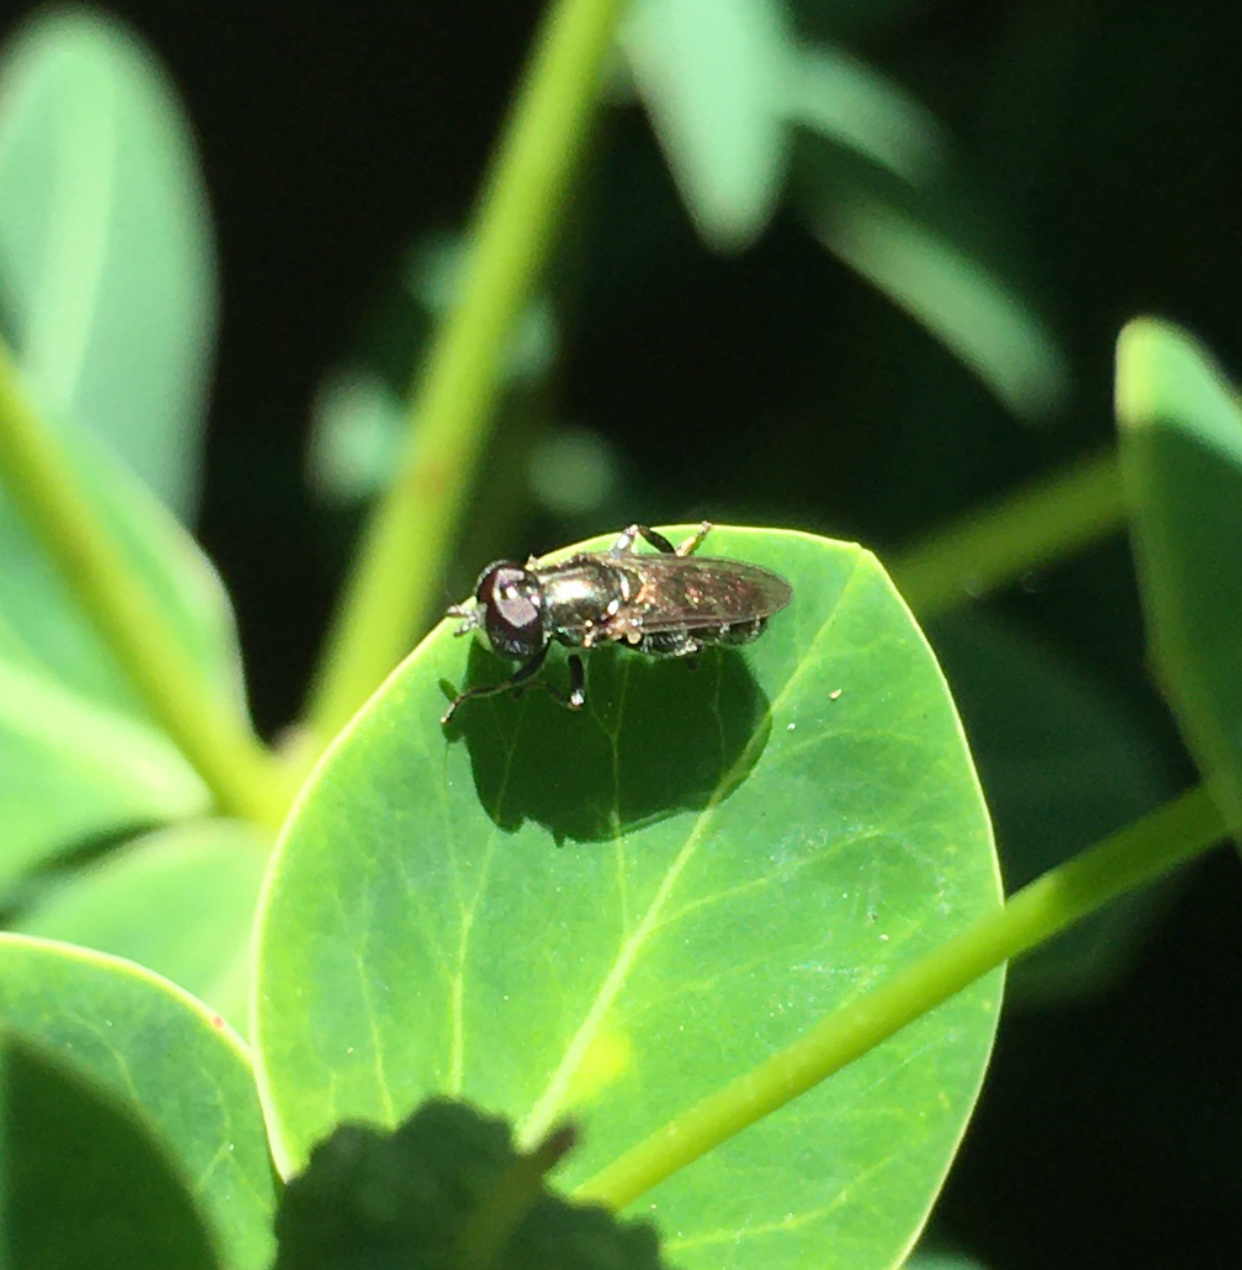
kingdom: Animalia
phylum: Arthropoda
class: Insecta
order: Diptera
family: Syrphidae
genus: Eumerus
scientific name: Eumerus
